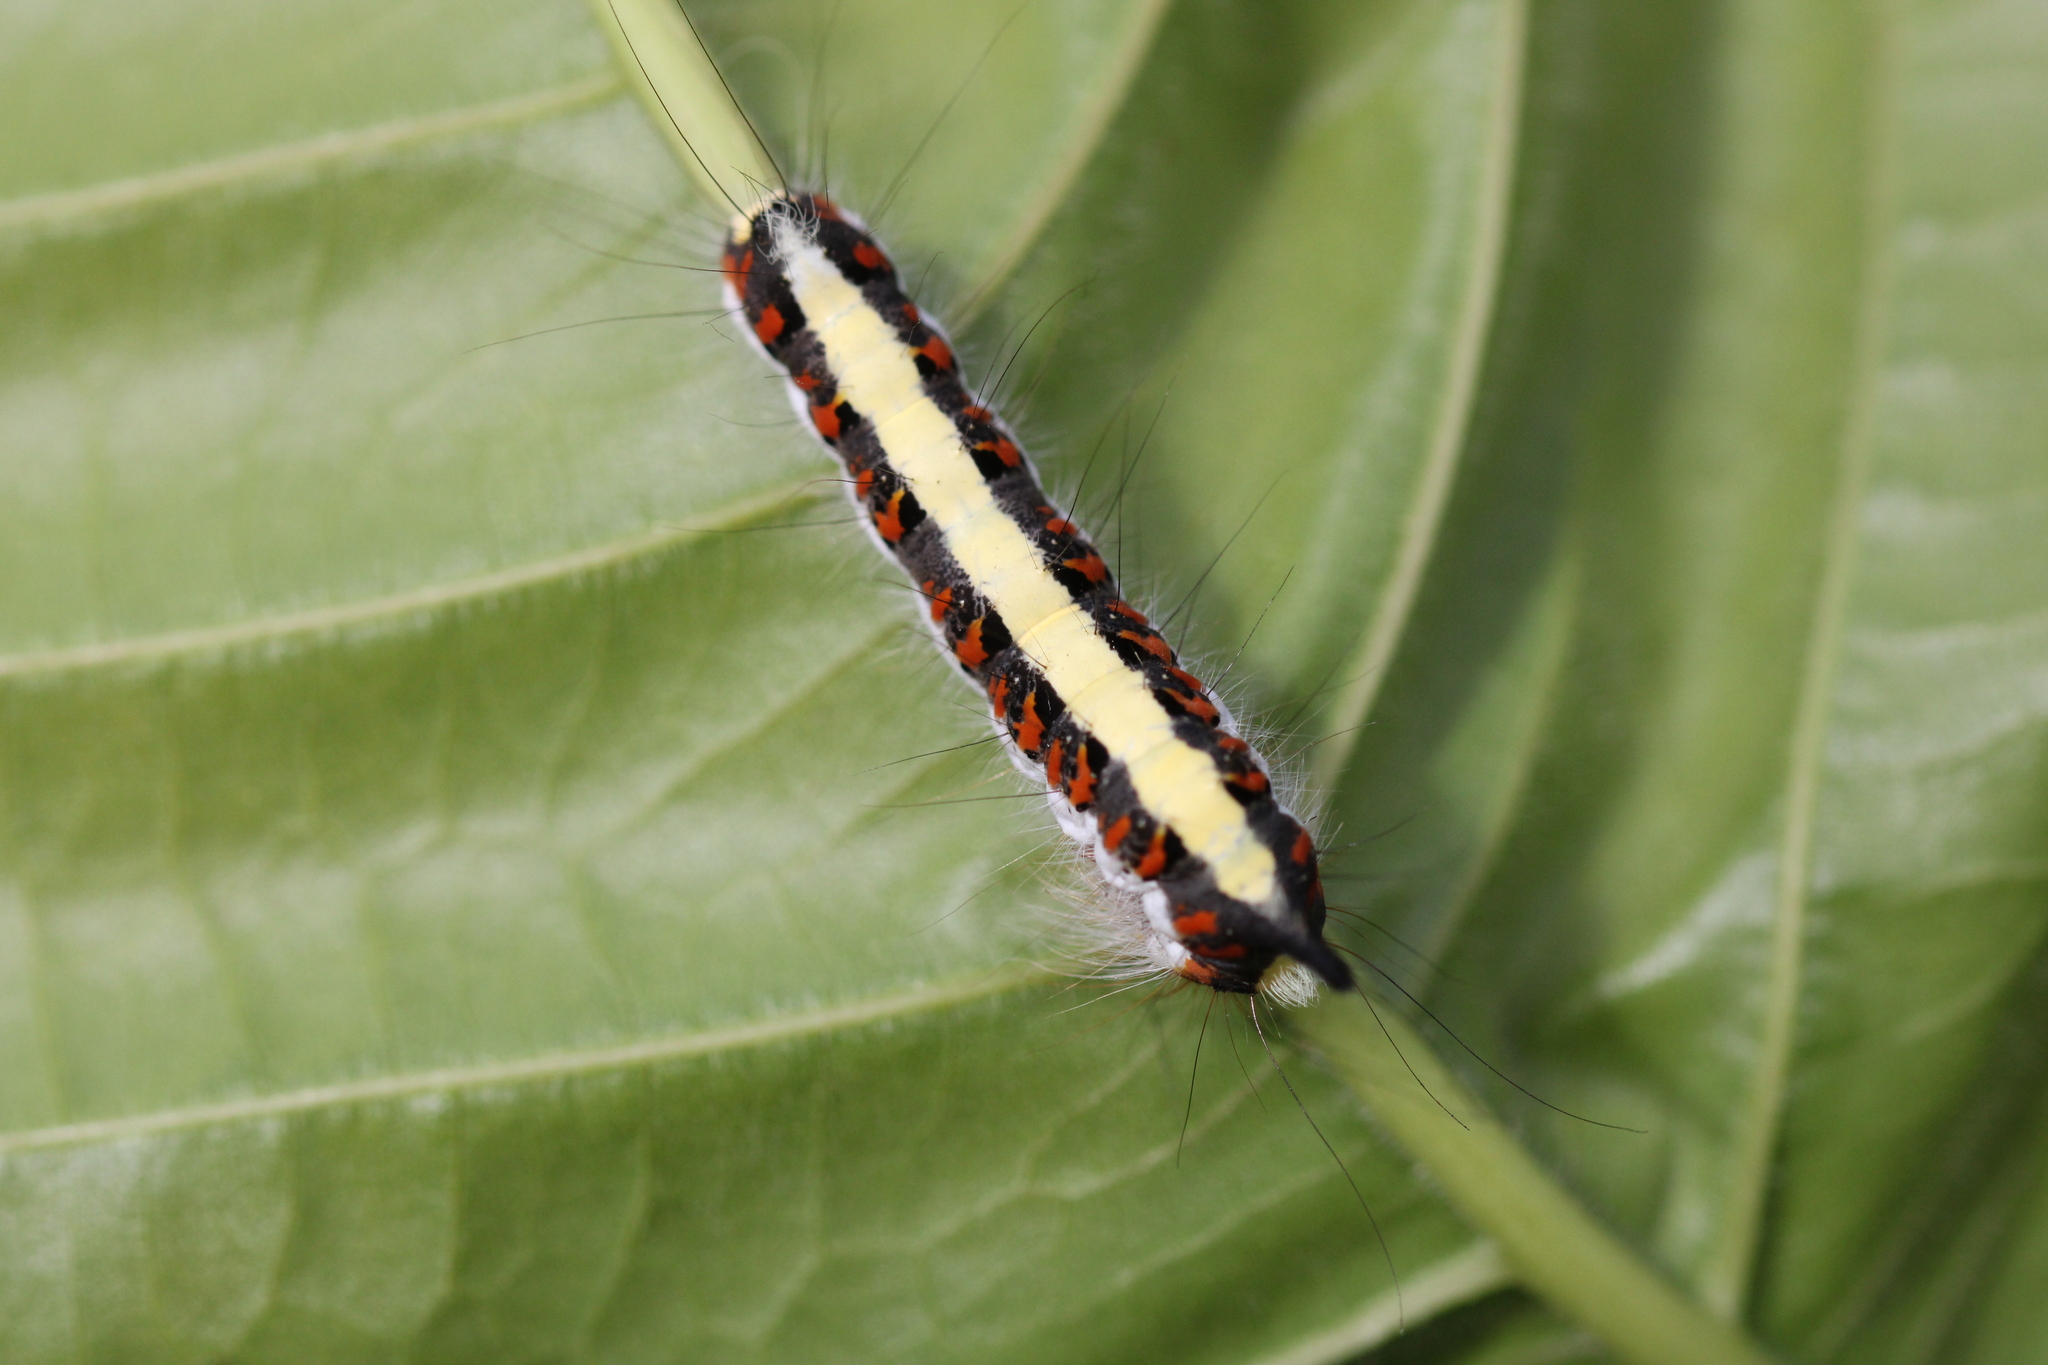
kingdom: Animalia
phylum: Arthropoda
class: Insecta
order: Lepidoptera
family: Noctuidae
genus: Acronicta
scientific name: Acronicta psi
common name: Grey dagger
